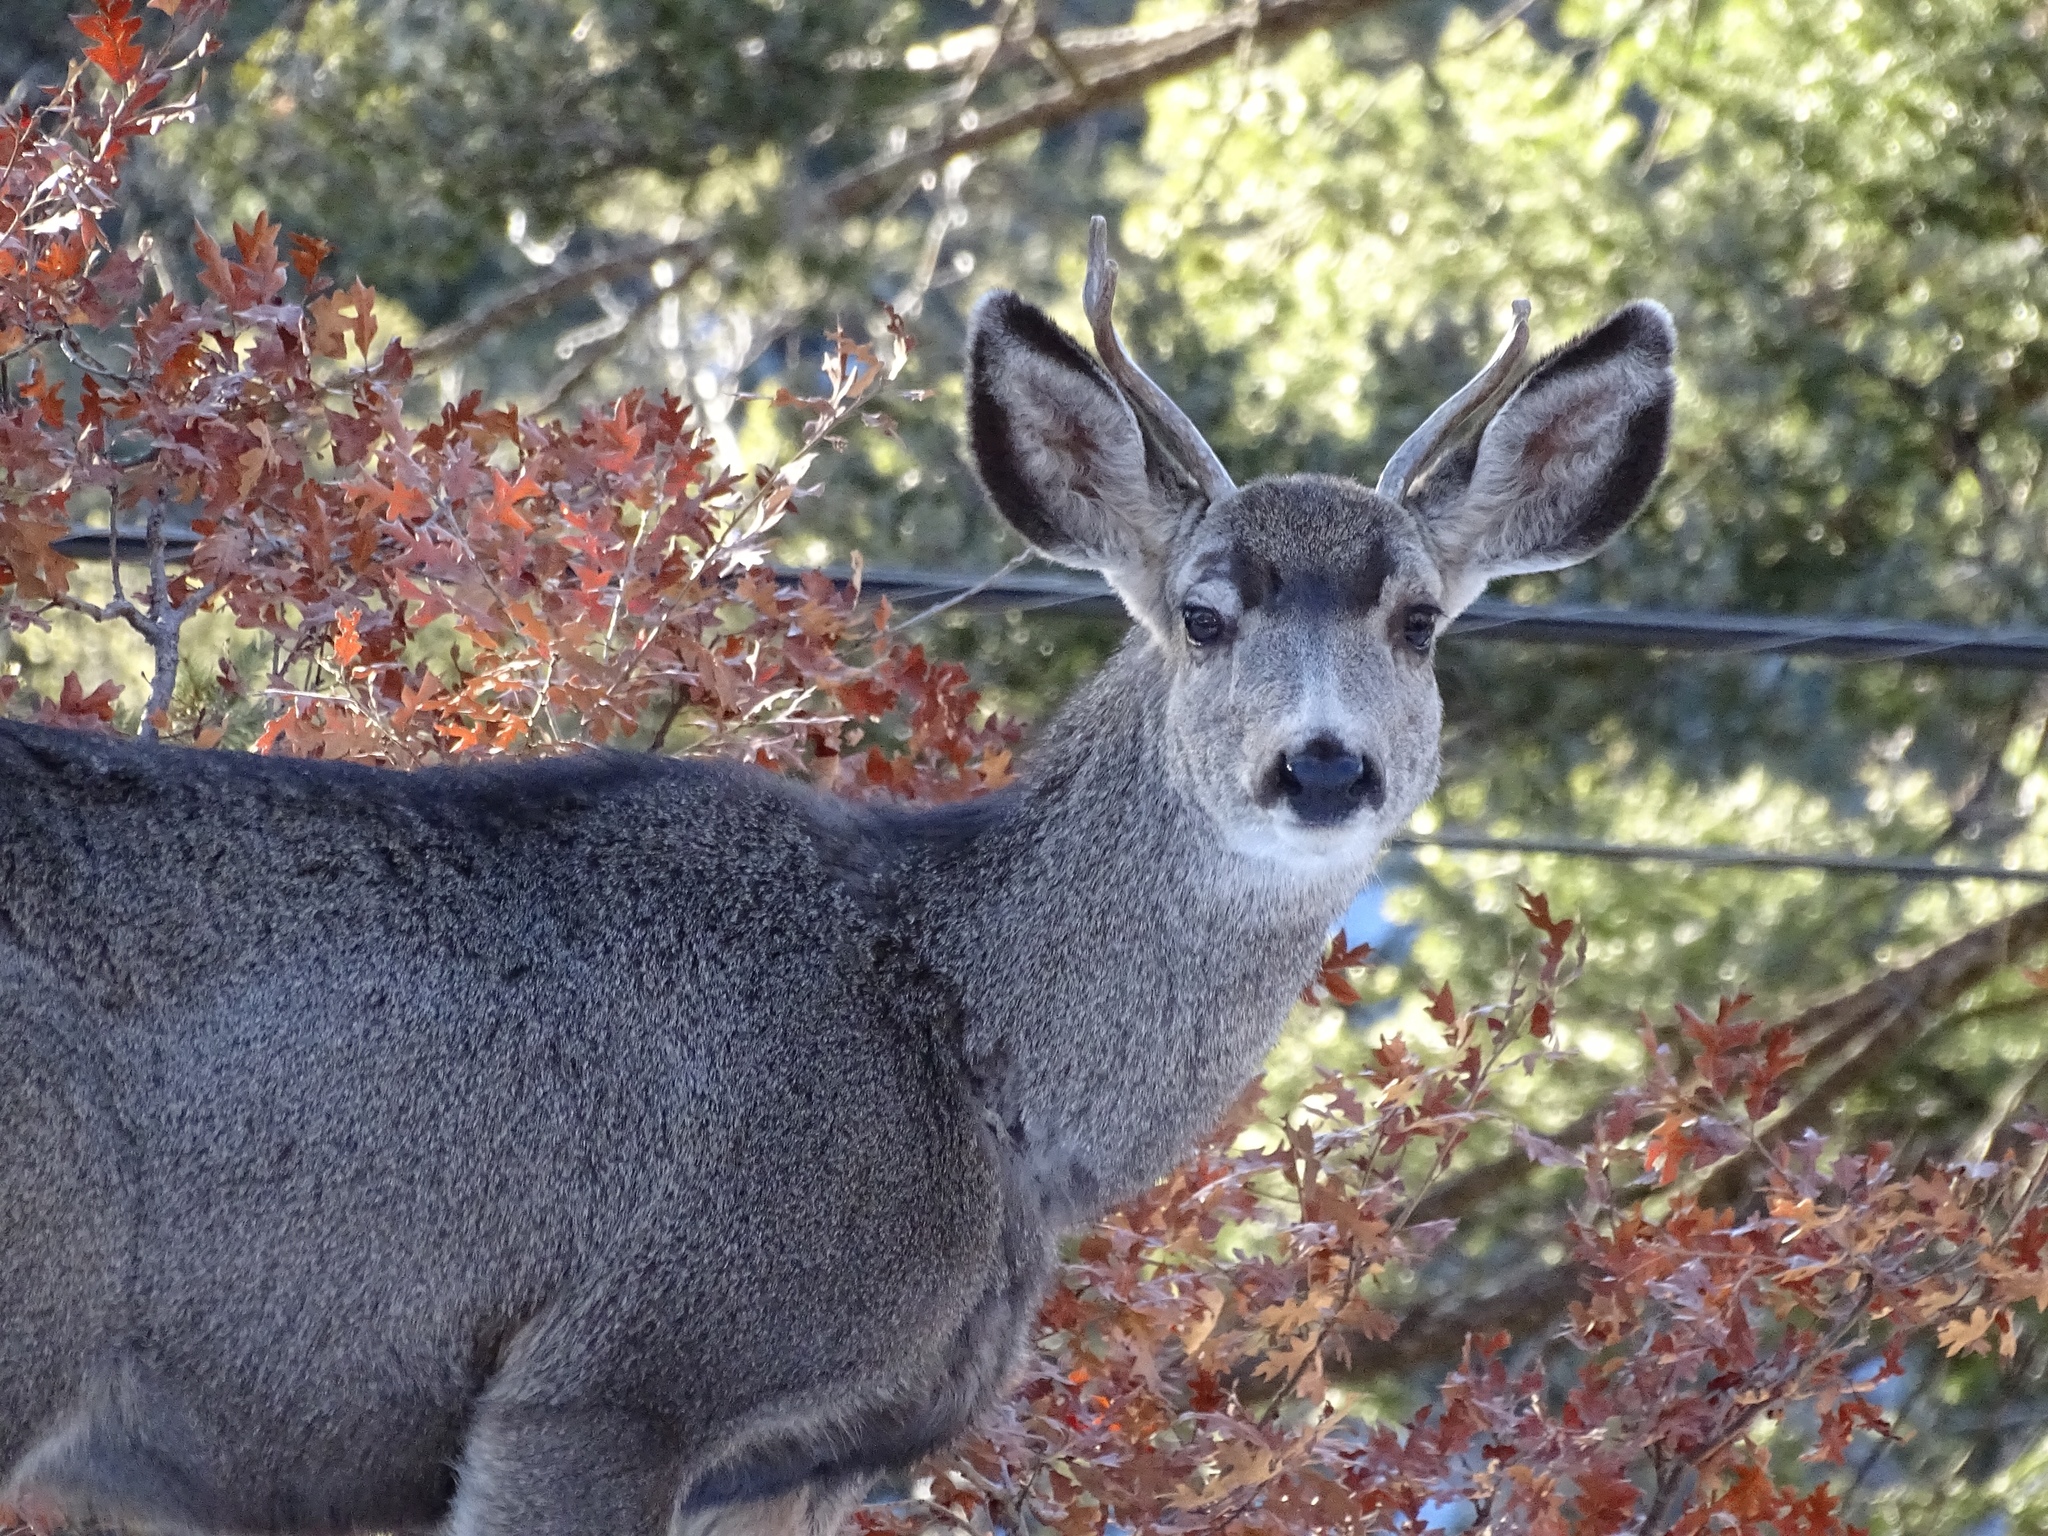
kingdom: Animalia
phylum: Chordata
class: Mammalia
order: Artiodactyla
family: Cervidae
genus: Odocoileus
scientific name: Odocoileus hemionus
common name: Mule deer
